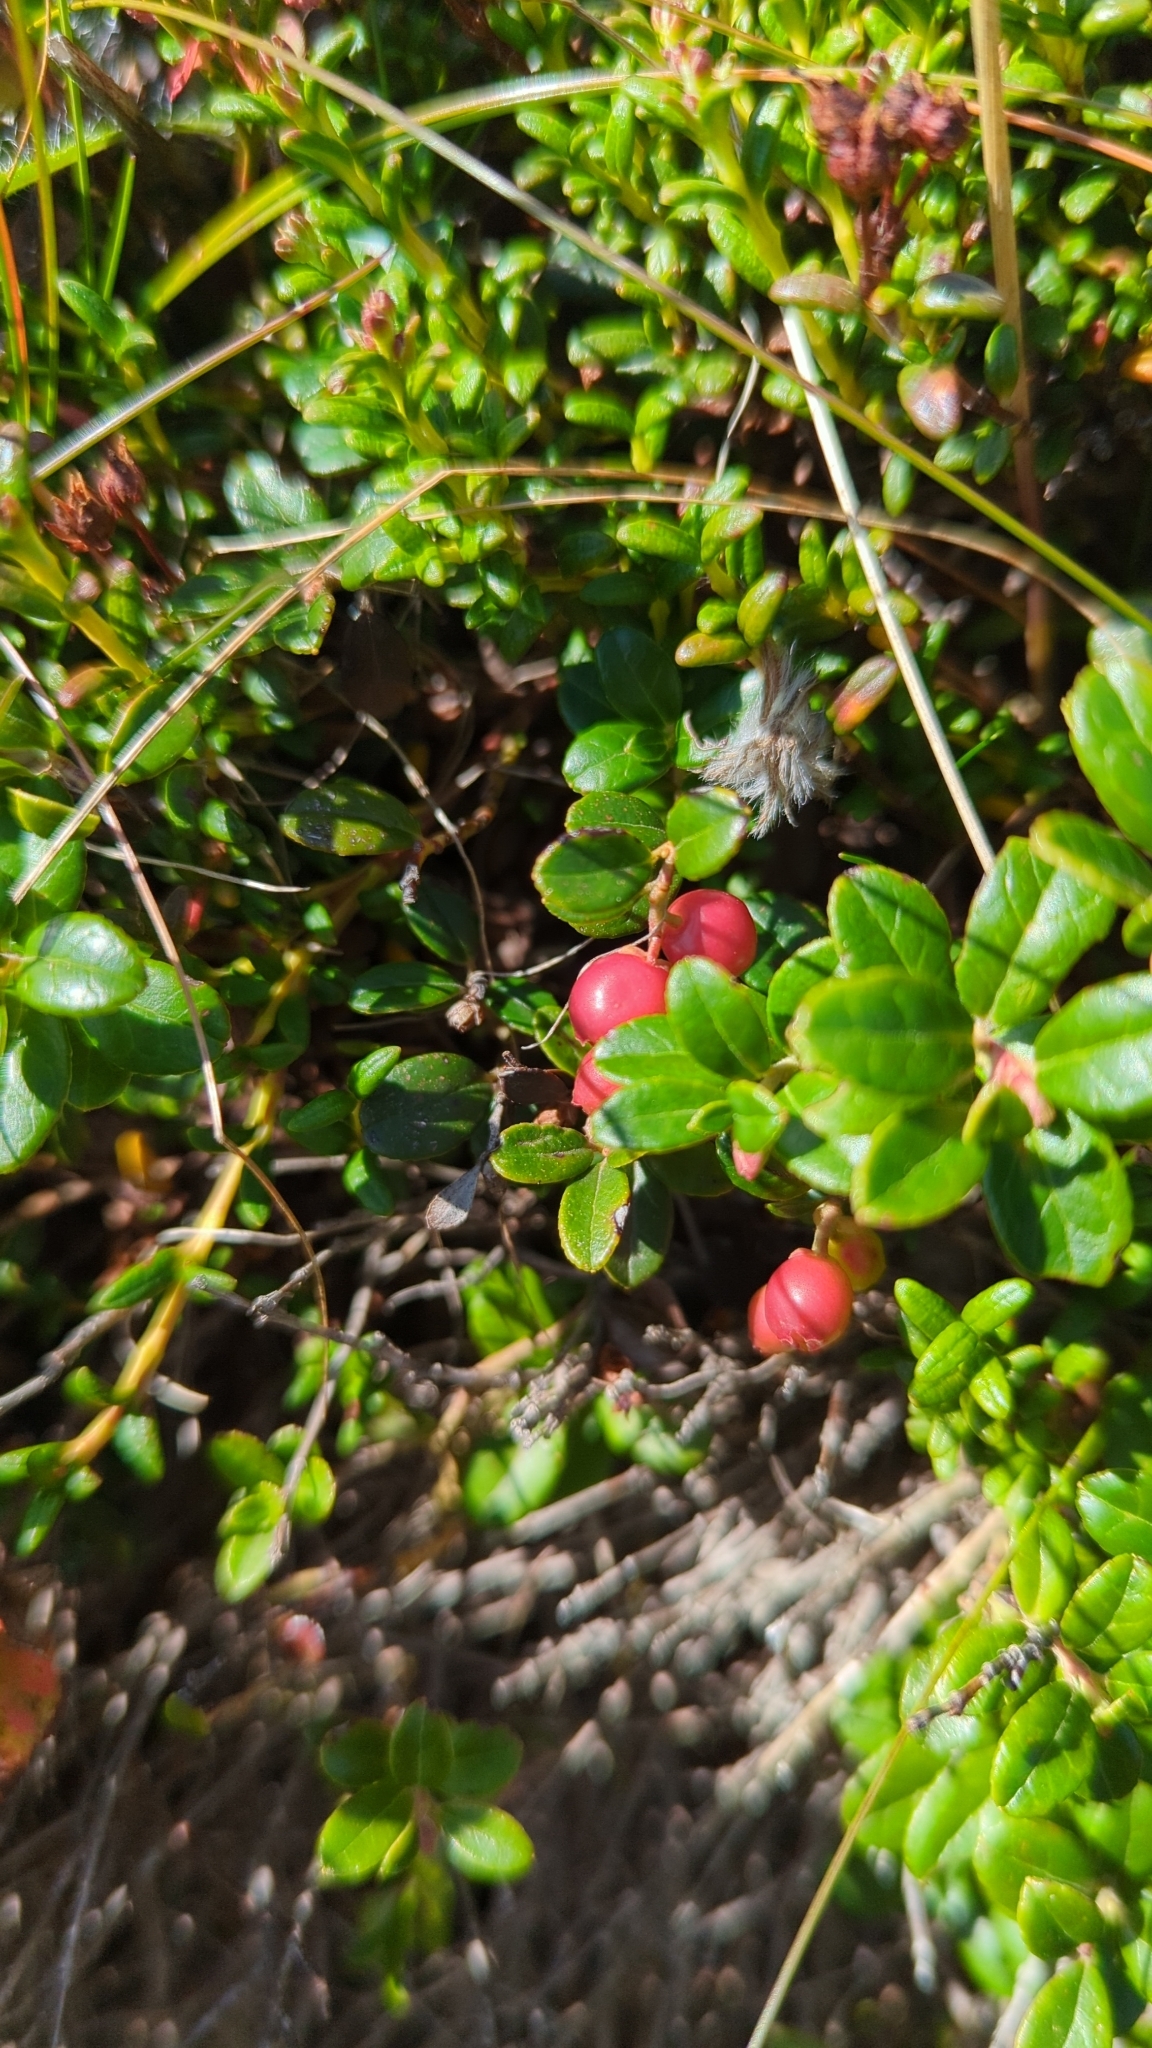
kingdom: Plantae
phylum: Tracheophyta
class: Magnoliopsida
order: Ericales
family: Ericaceae
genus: Vaccinium
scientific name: Vaccinium vitis-idaea
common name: Cowberry
